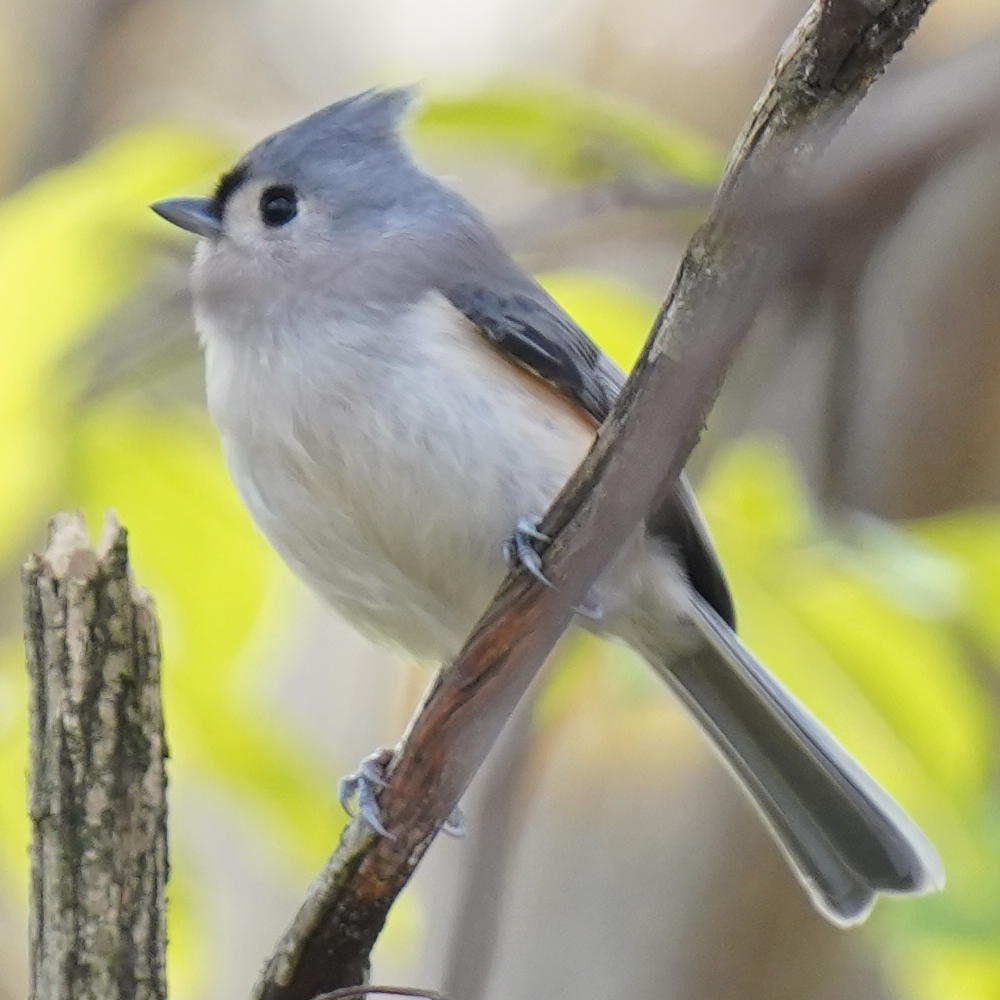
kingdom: Animalia
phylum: Chordata
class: Aves
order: Passeriformes
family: Paridae
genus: Baeolophus
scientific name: Baeolophus bicolor
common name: Tufted titmouse
